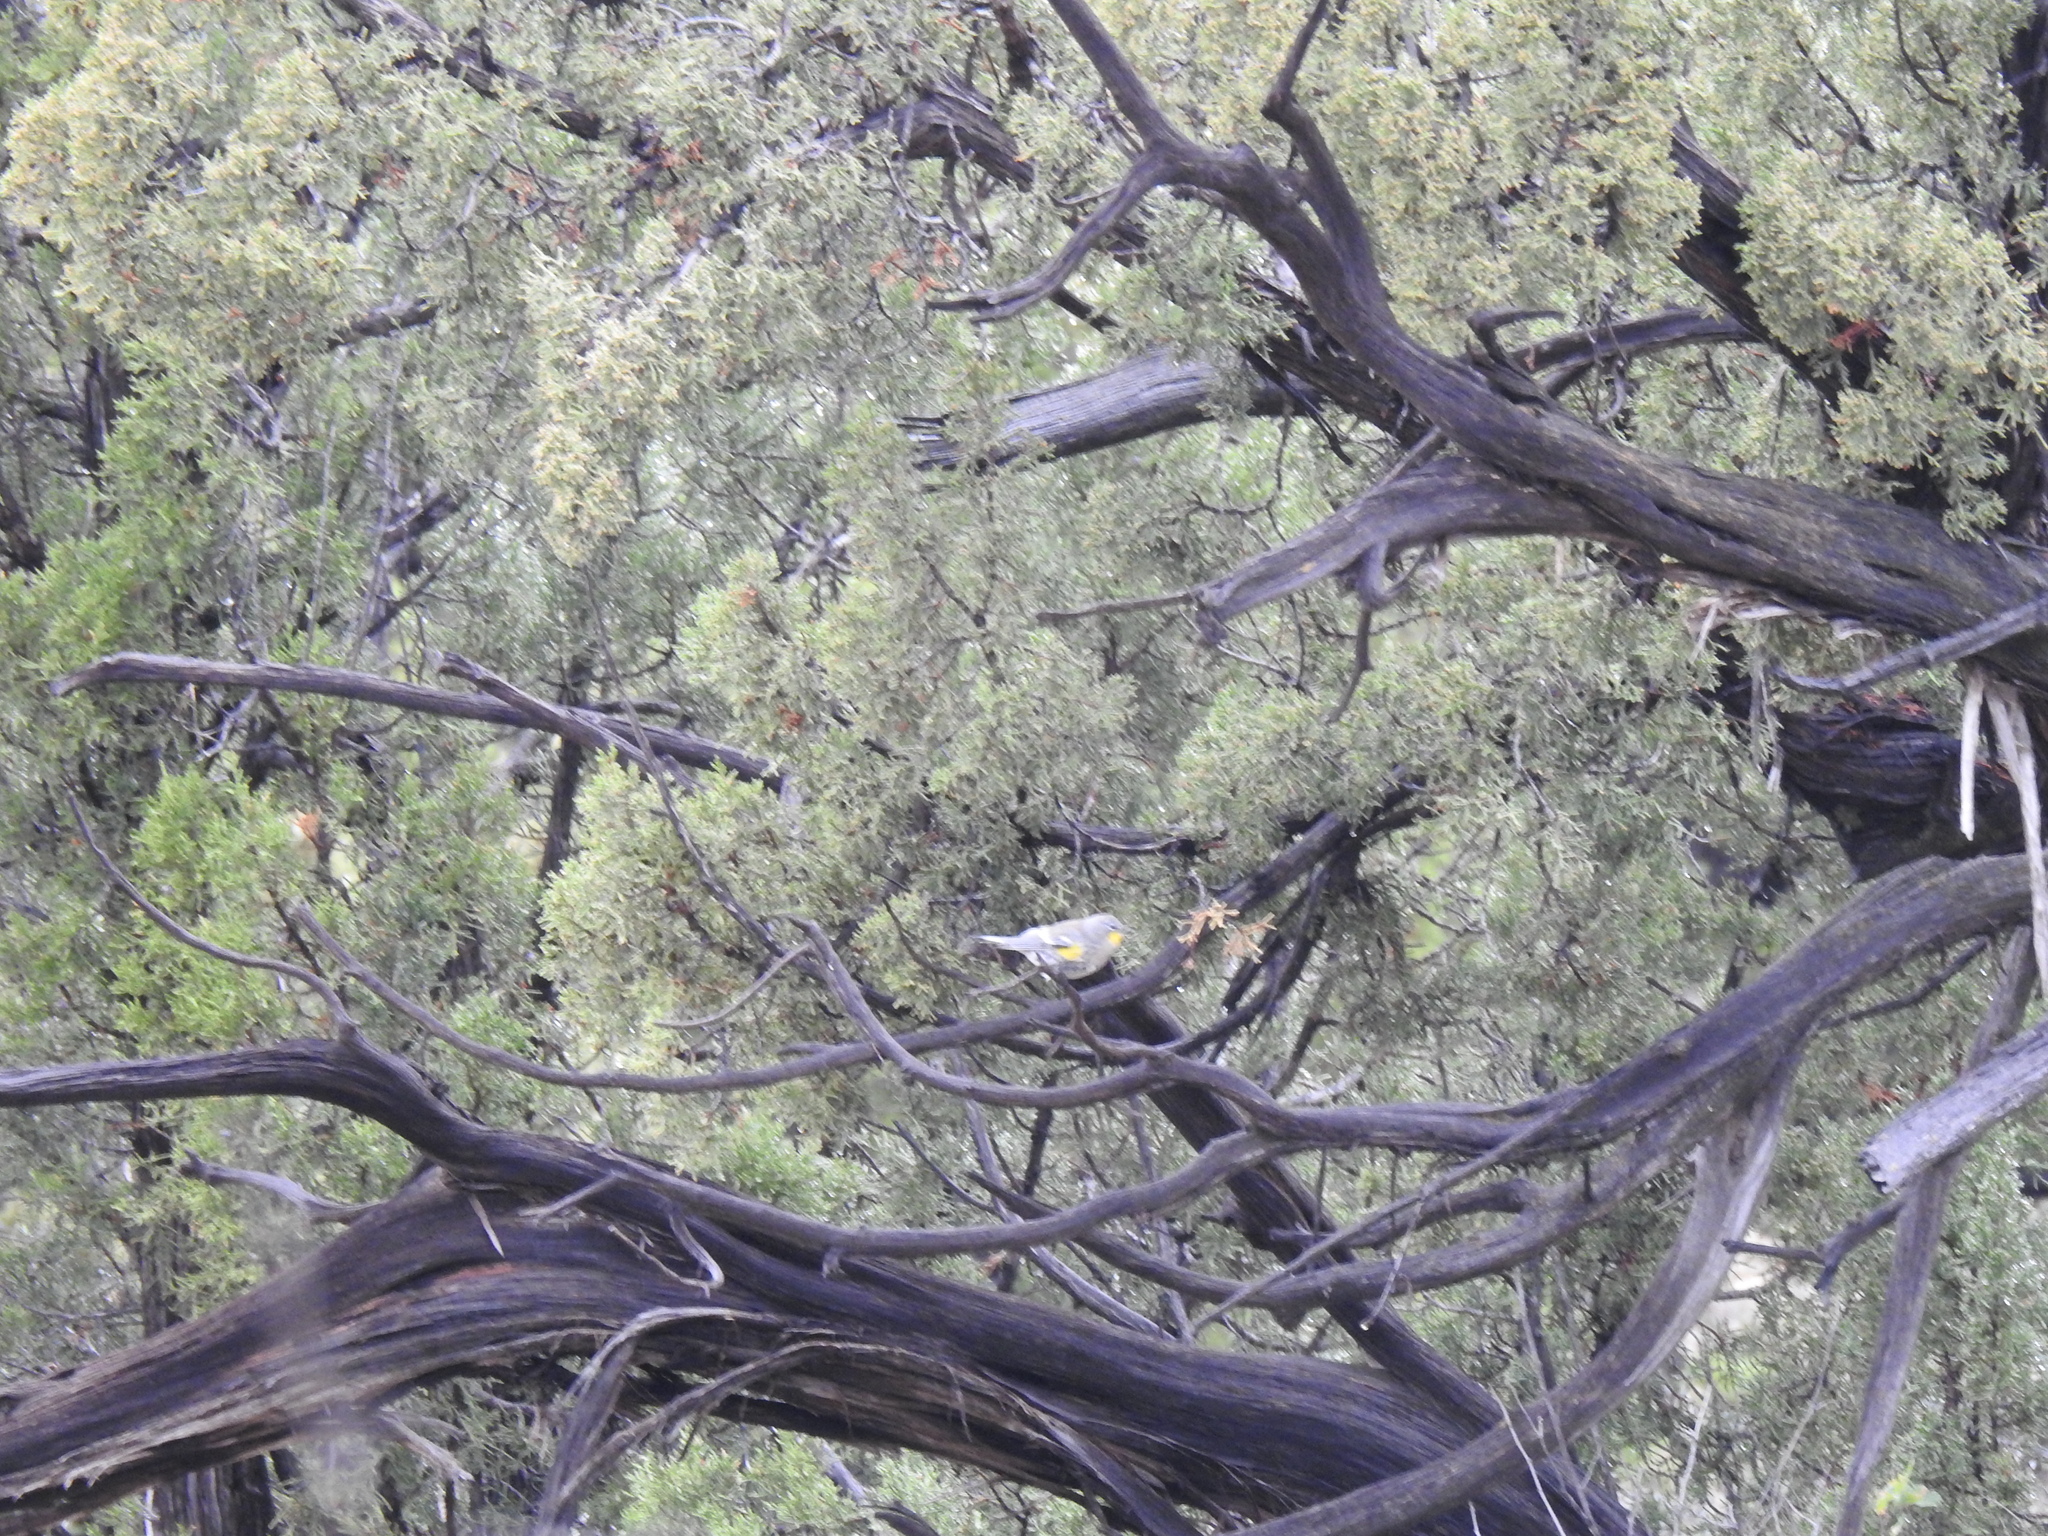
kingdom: Animalia
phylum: Chordata
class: Aves
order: Passeriformes
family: Parulidae
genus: Setophaga
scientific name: Setophaga coronata
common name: Myrtle warbler
